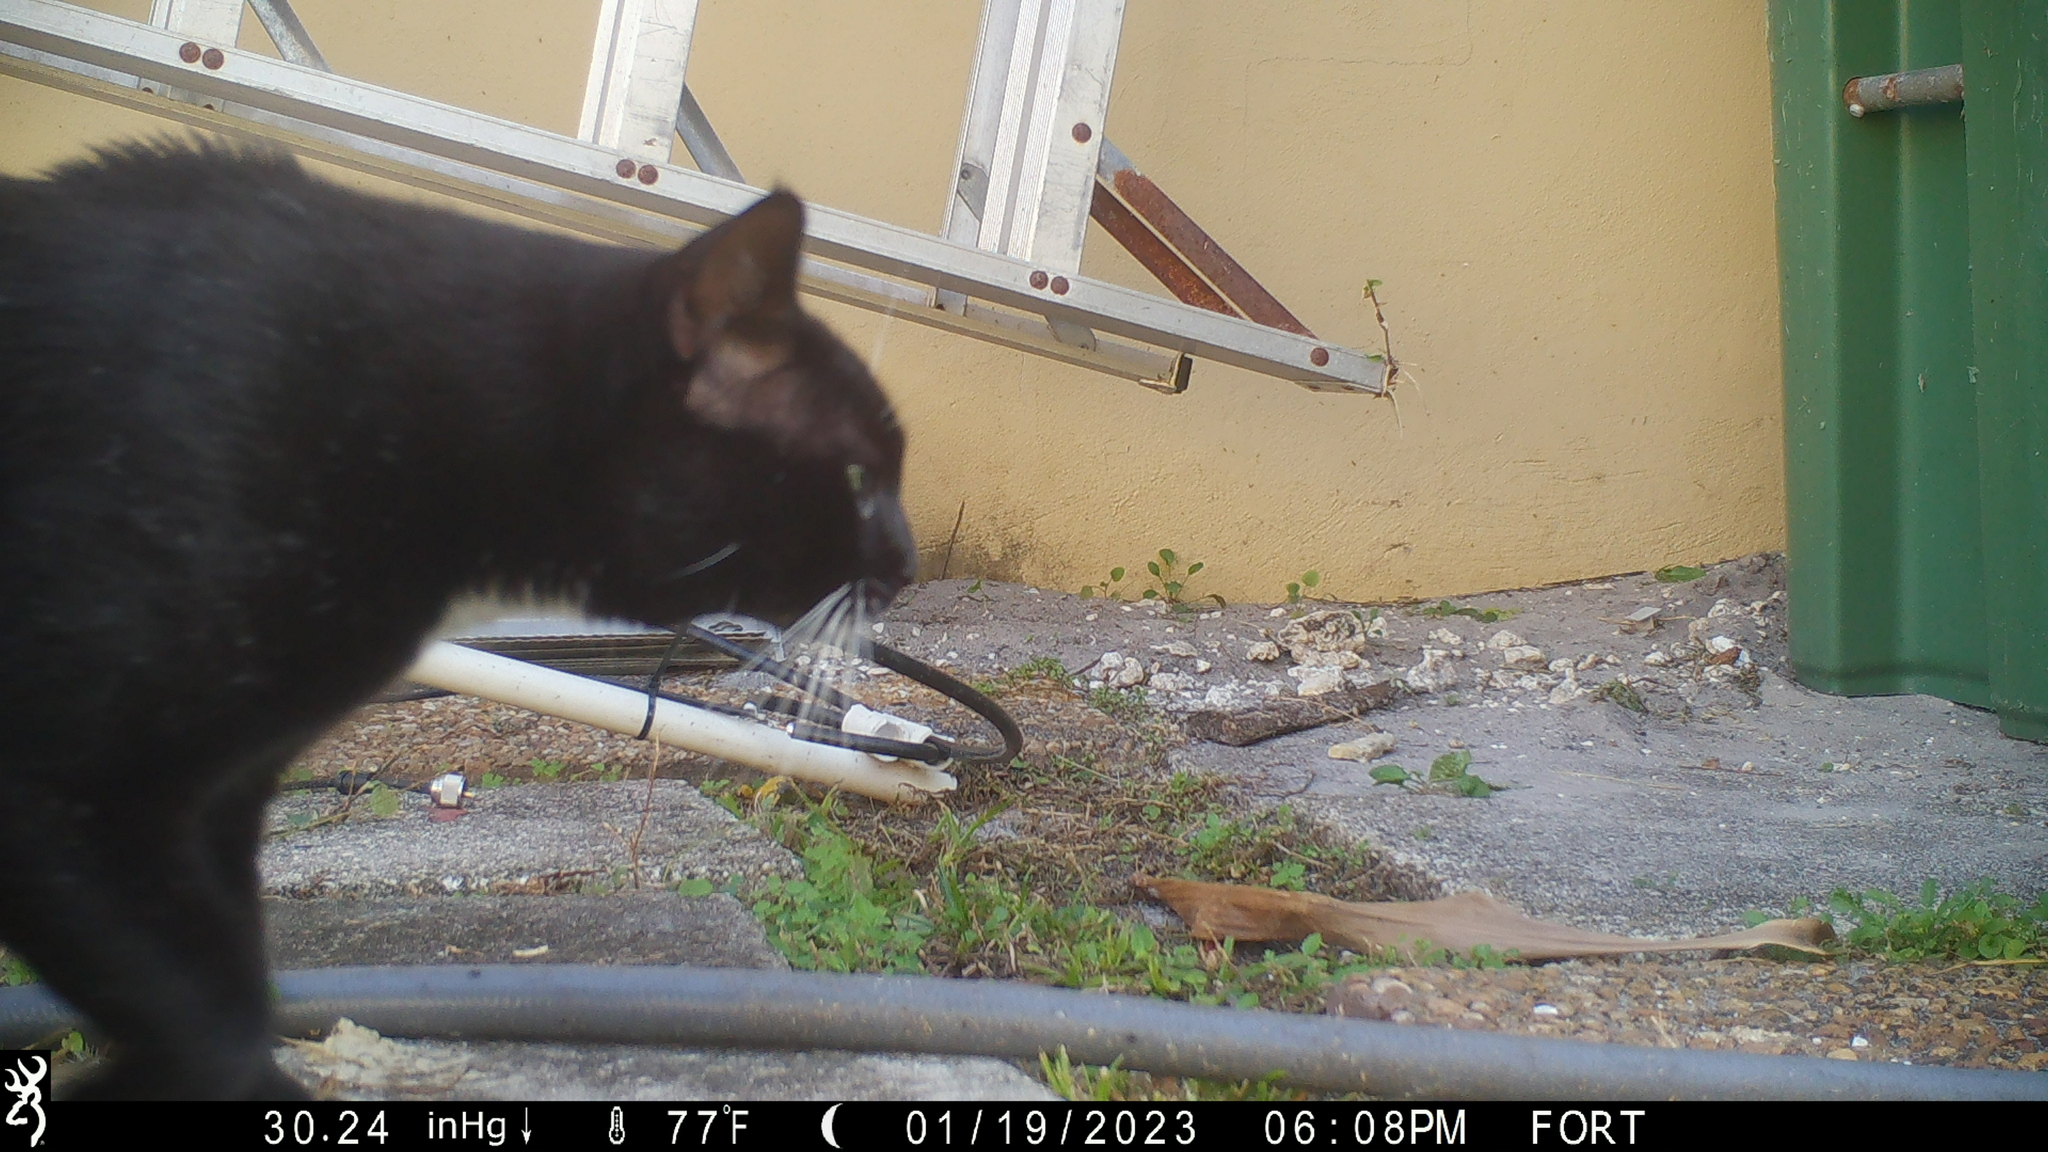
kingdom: Animalia
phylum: Chordata
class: Mammalia
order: Carnivora
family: Felidae
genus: Felis
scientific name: Felis catus
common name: Domestic cat
